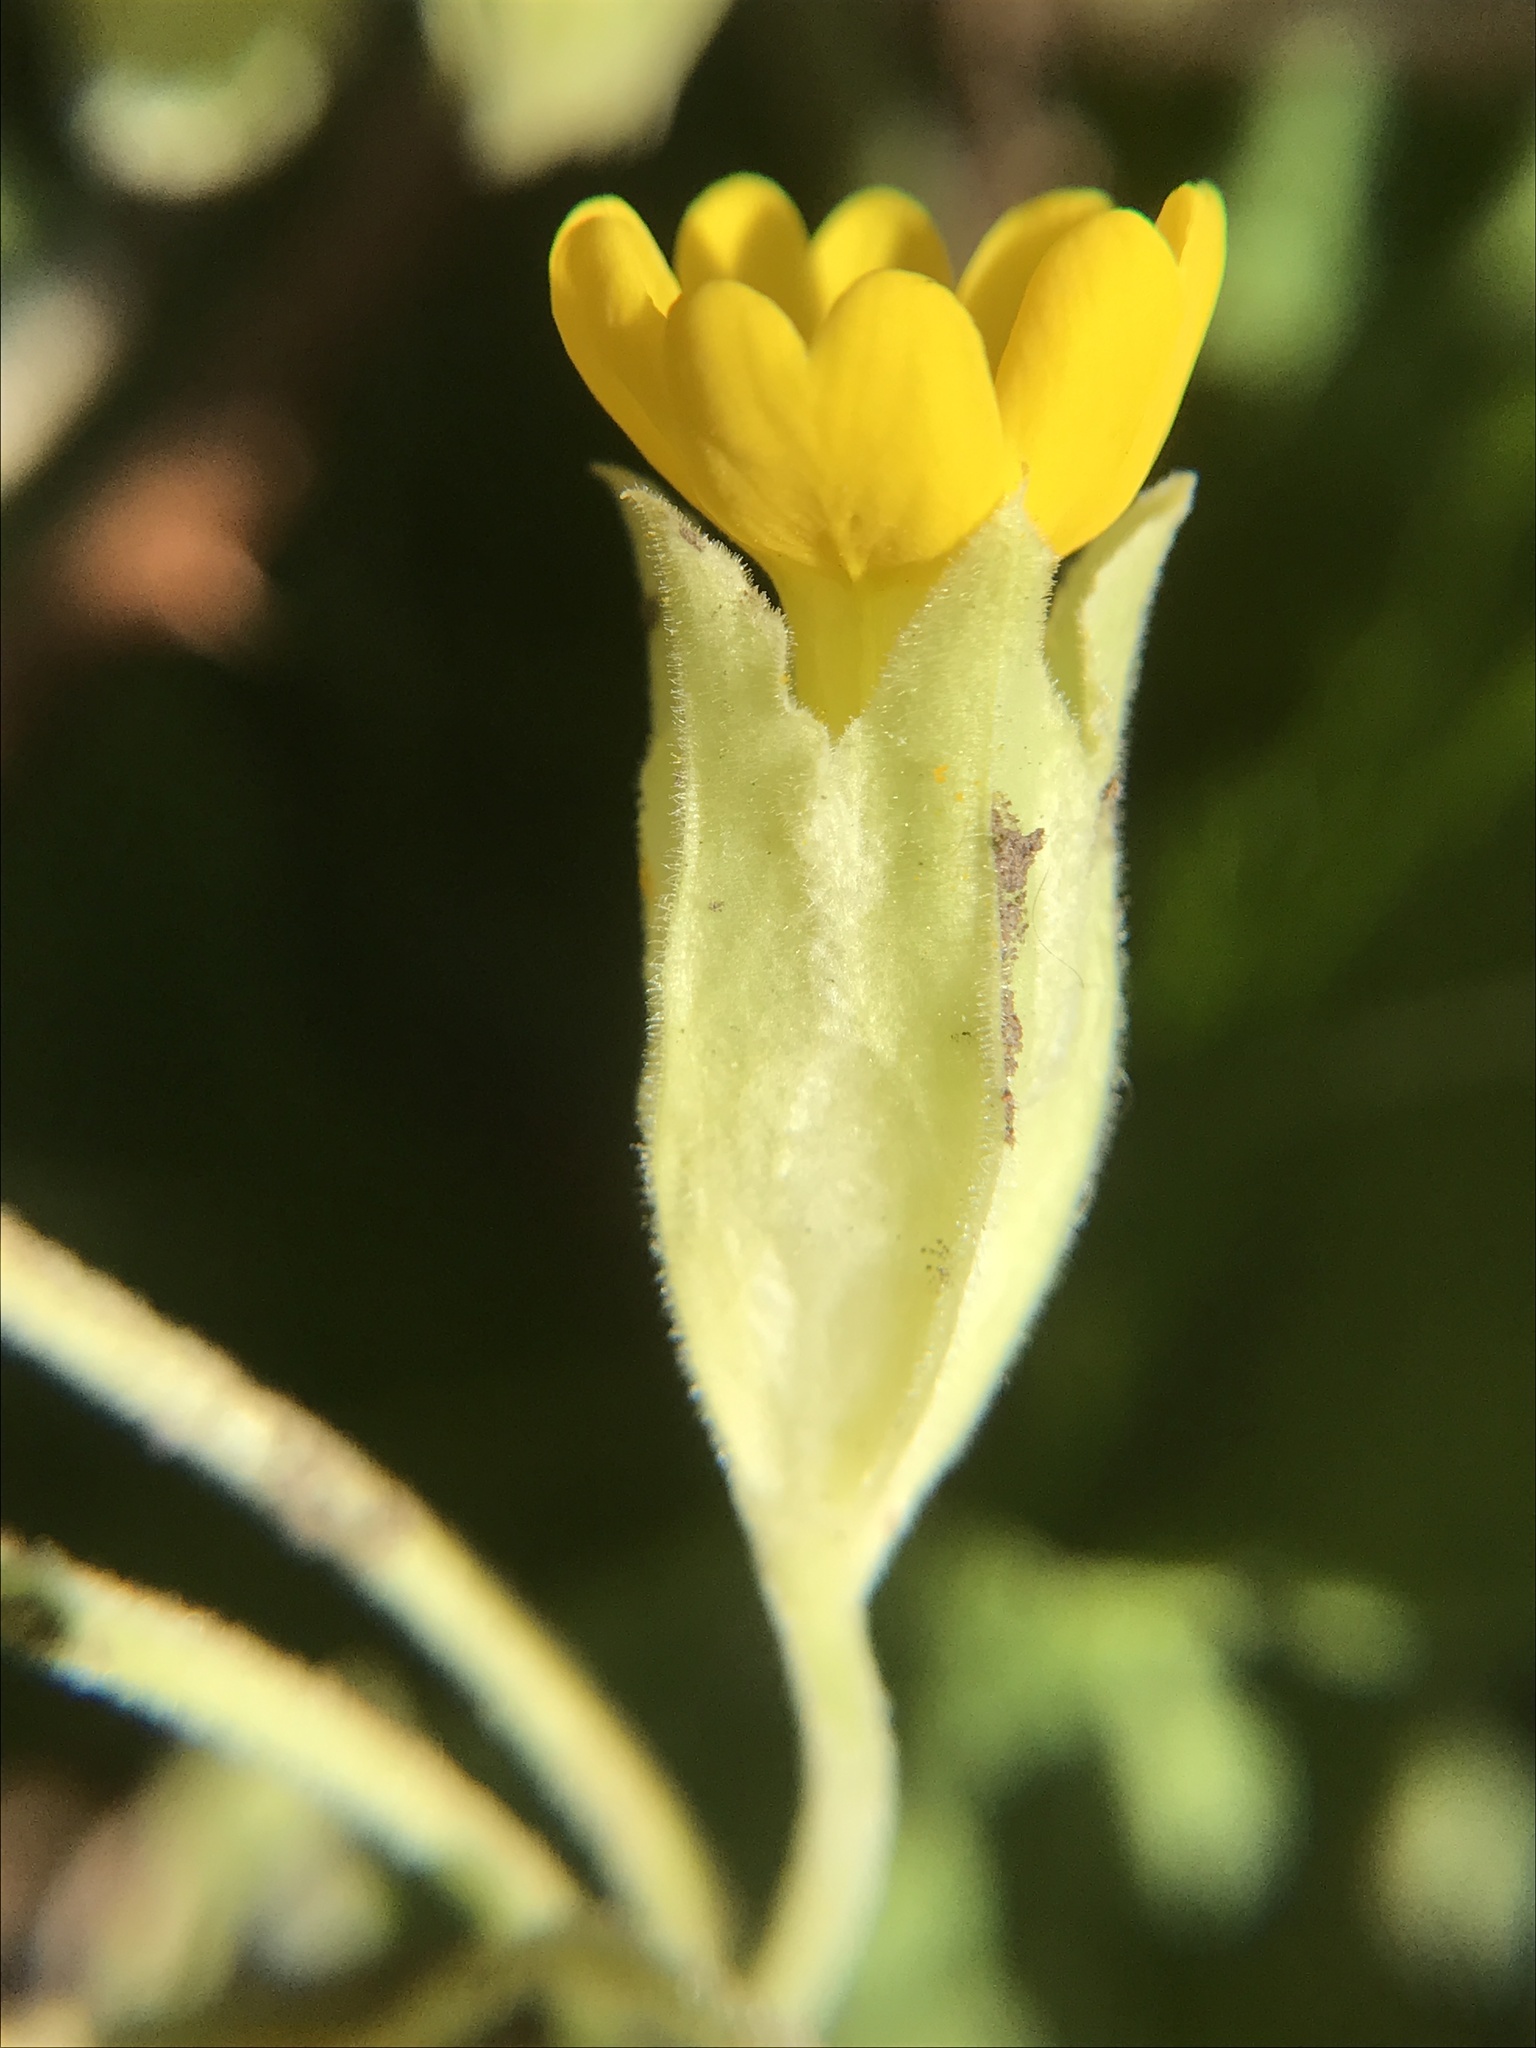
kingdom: Plantae
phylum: Tracheophyta
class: Magnoliopsida
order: Ericales
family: Primulaceae
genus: Primula
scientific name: Primula veris
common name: Cowslip
